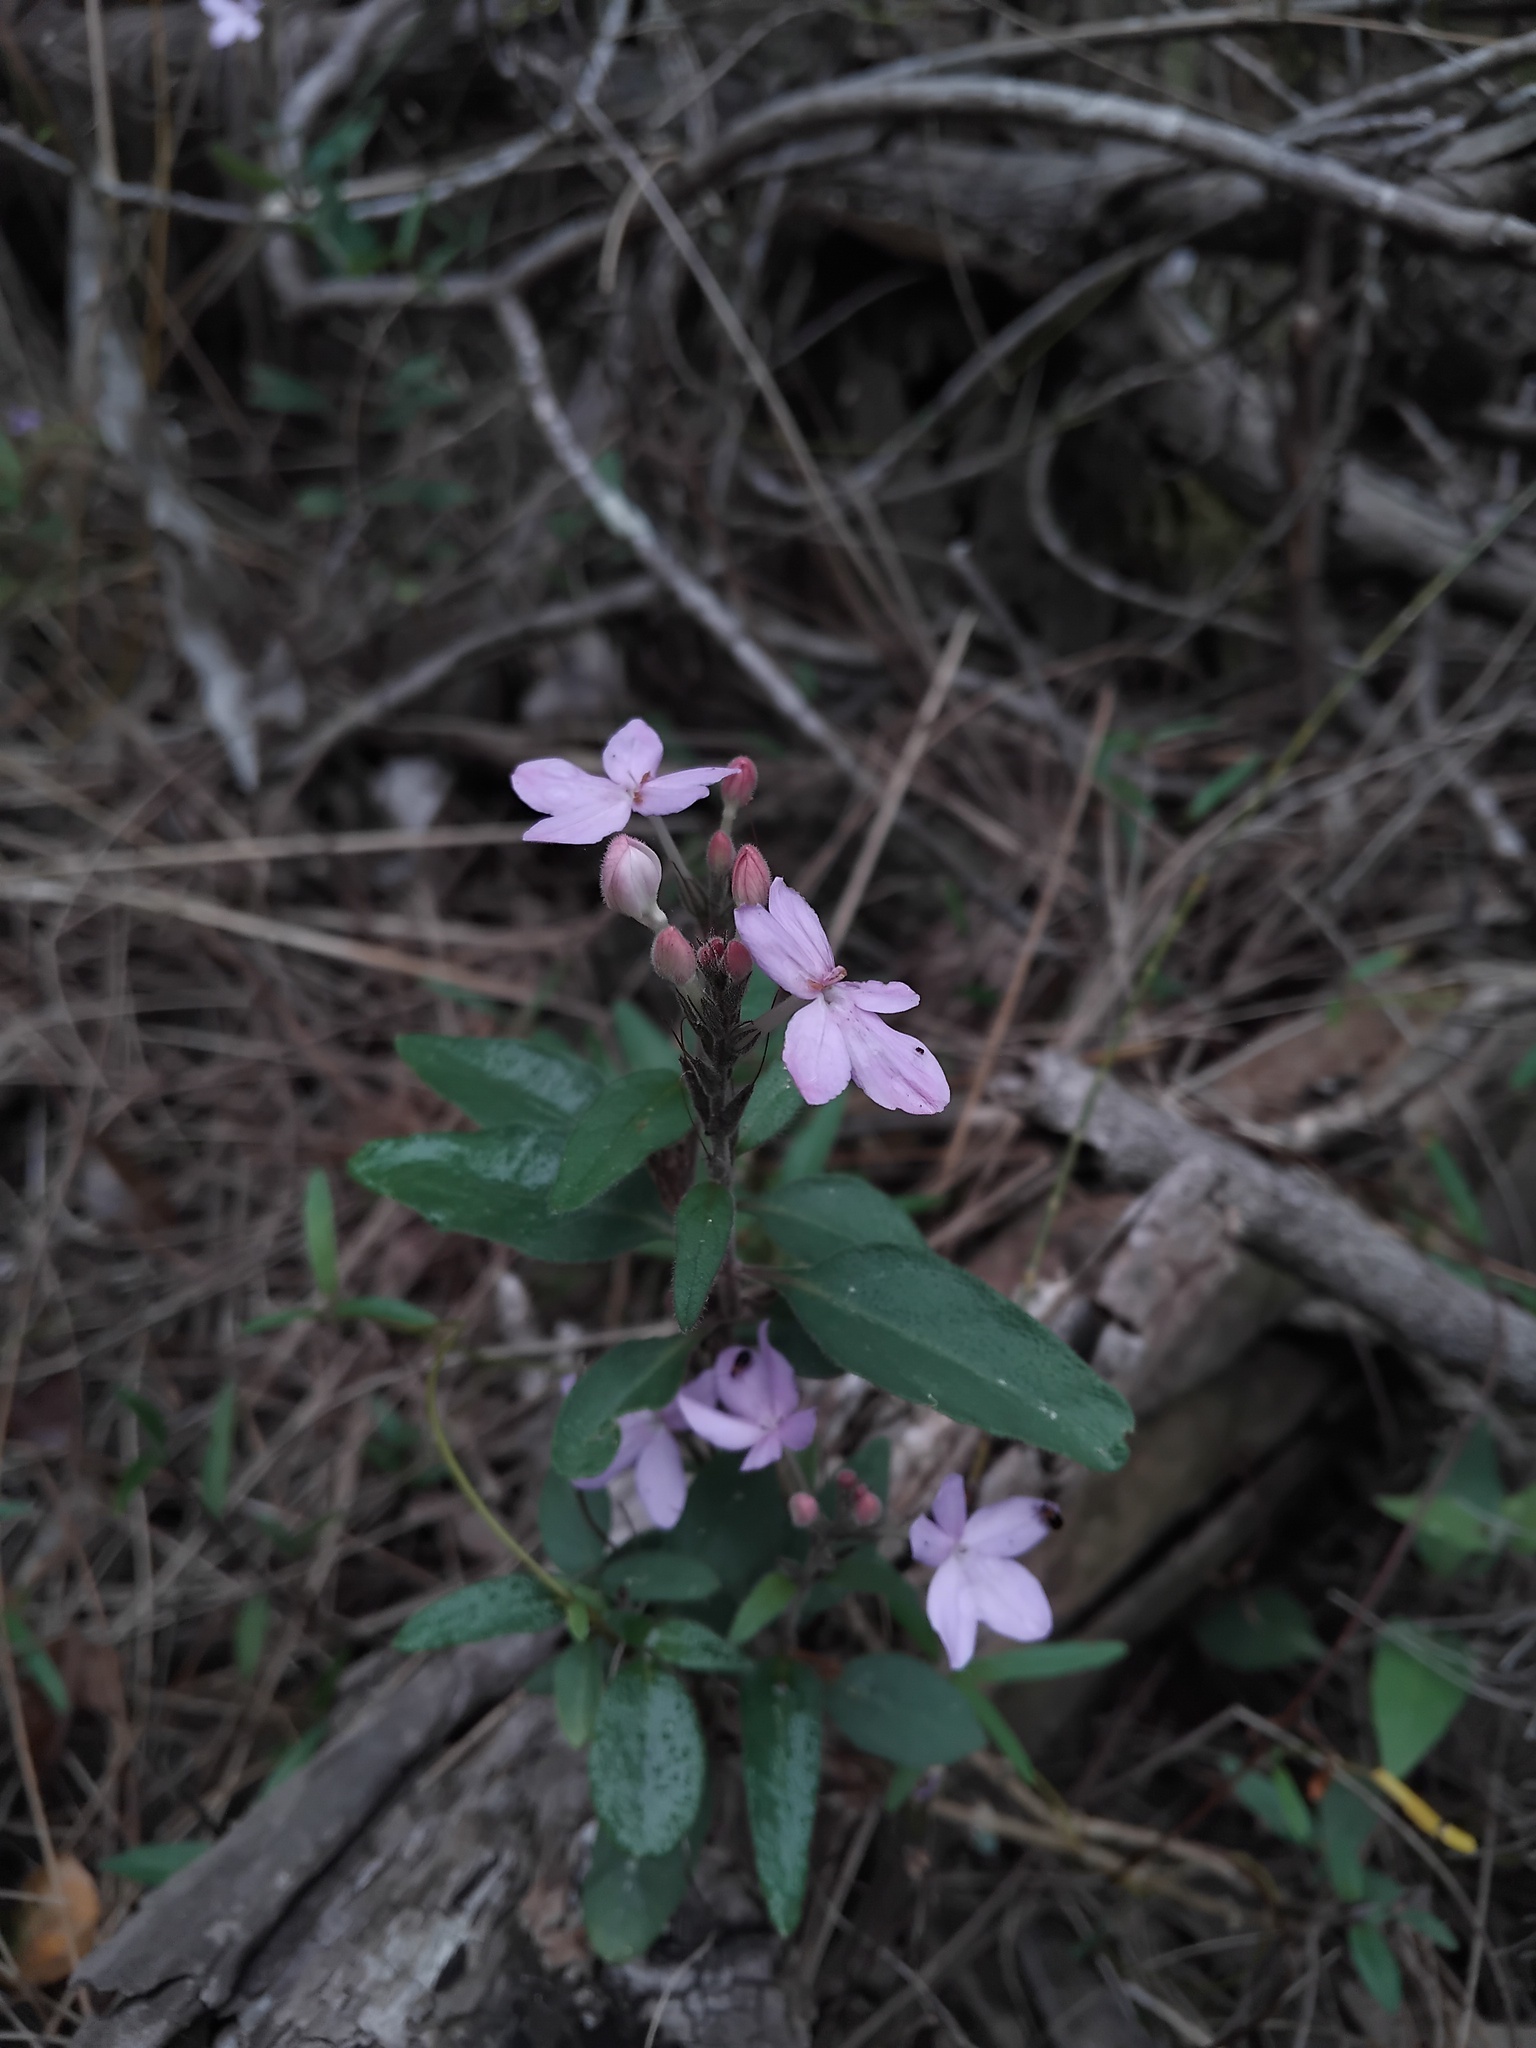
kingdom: Plantae
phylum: Tracheophyta
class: Magnoliopsida
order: Lamiales
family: Acanthaceae
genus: Pseuderanthemum
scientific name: Pseuderanthemum variabile
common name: Night and afternoon
